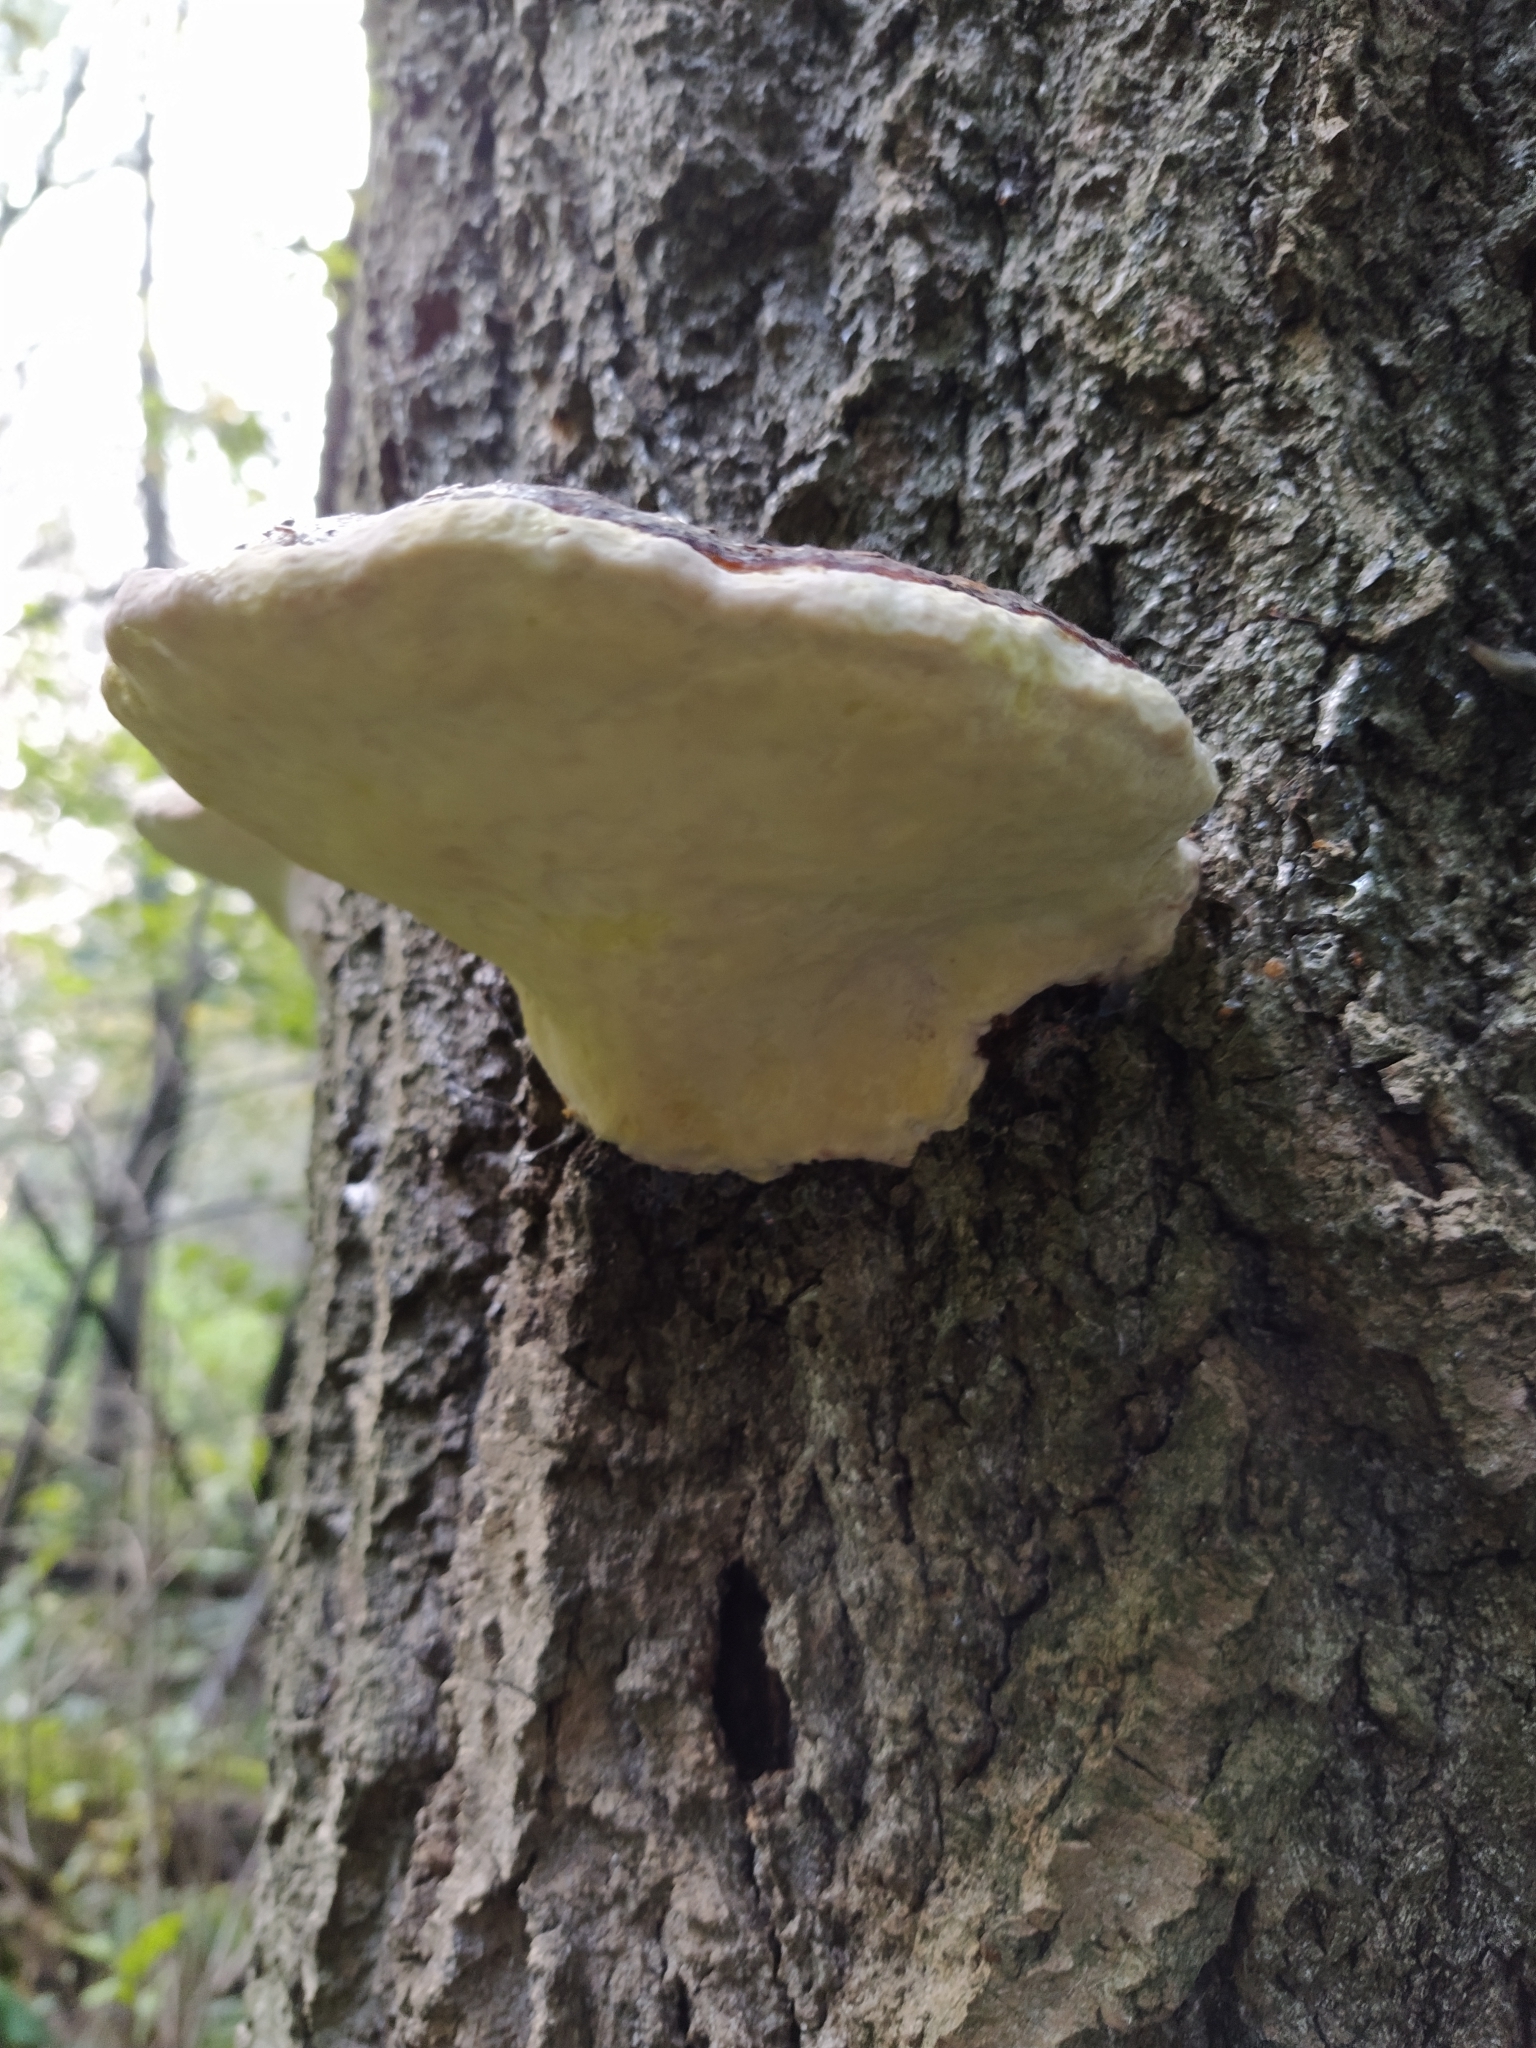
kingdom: Fungi
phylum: Basidiomycota
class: Agaricomycetes
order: Polyporales
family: Fomitopsidaceae
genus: Fomitopsis
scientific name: Fomitopsis pinicola
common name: Red-belted bracket
